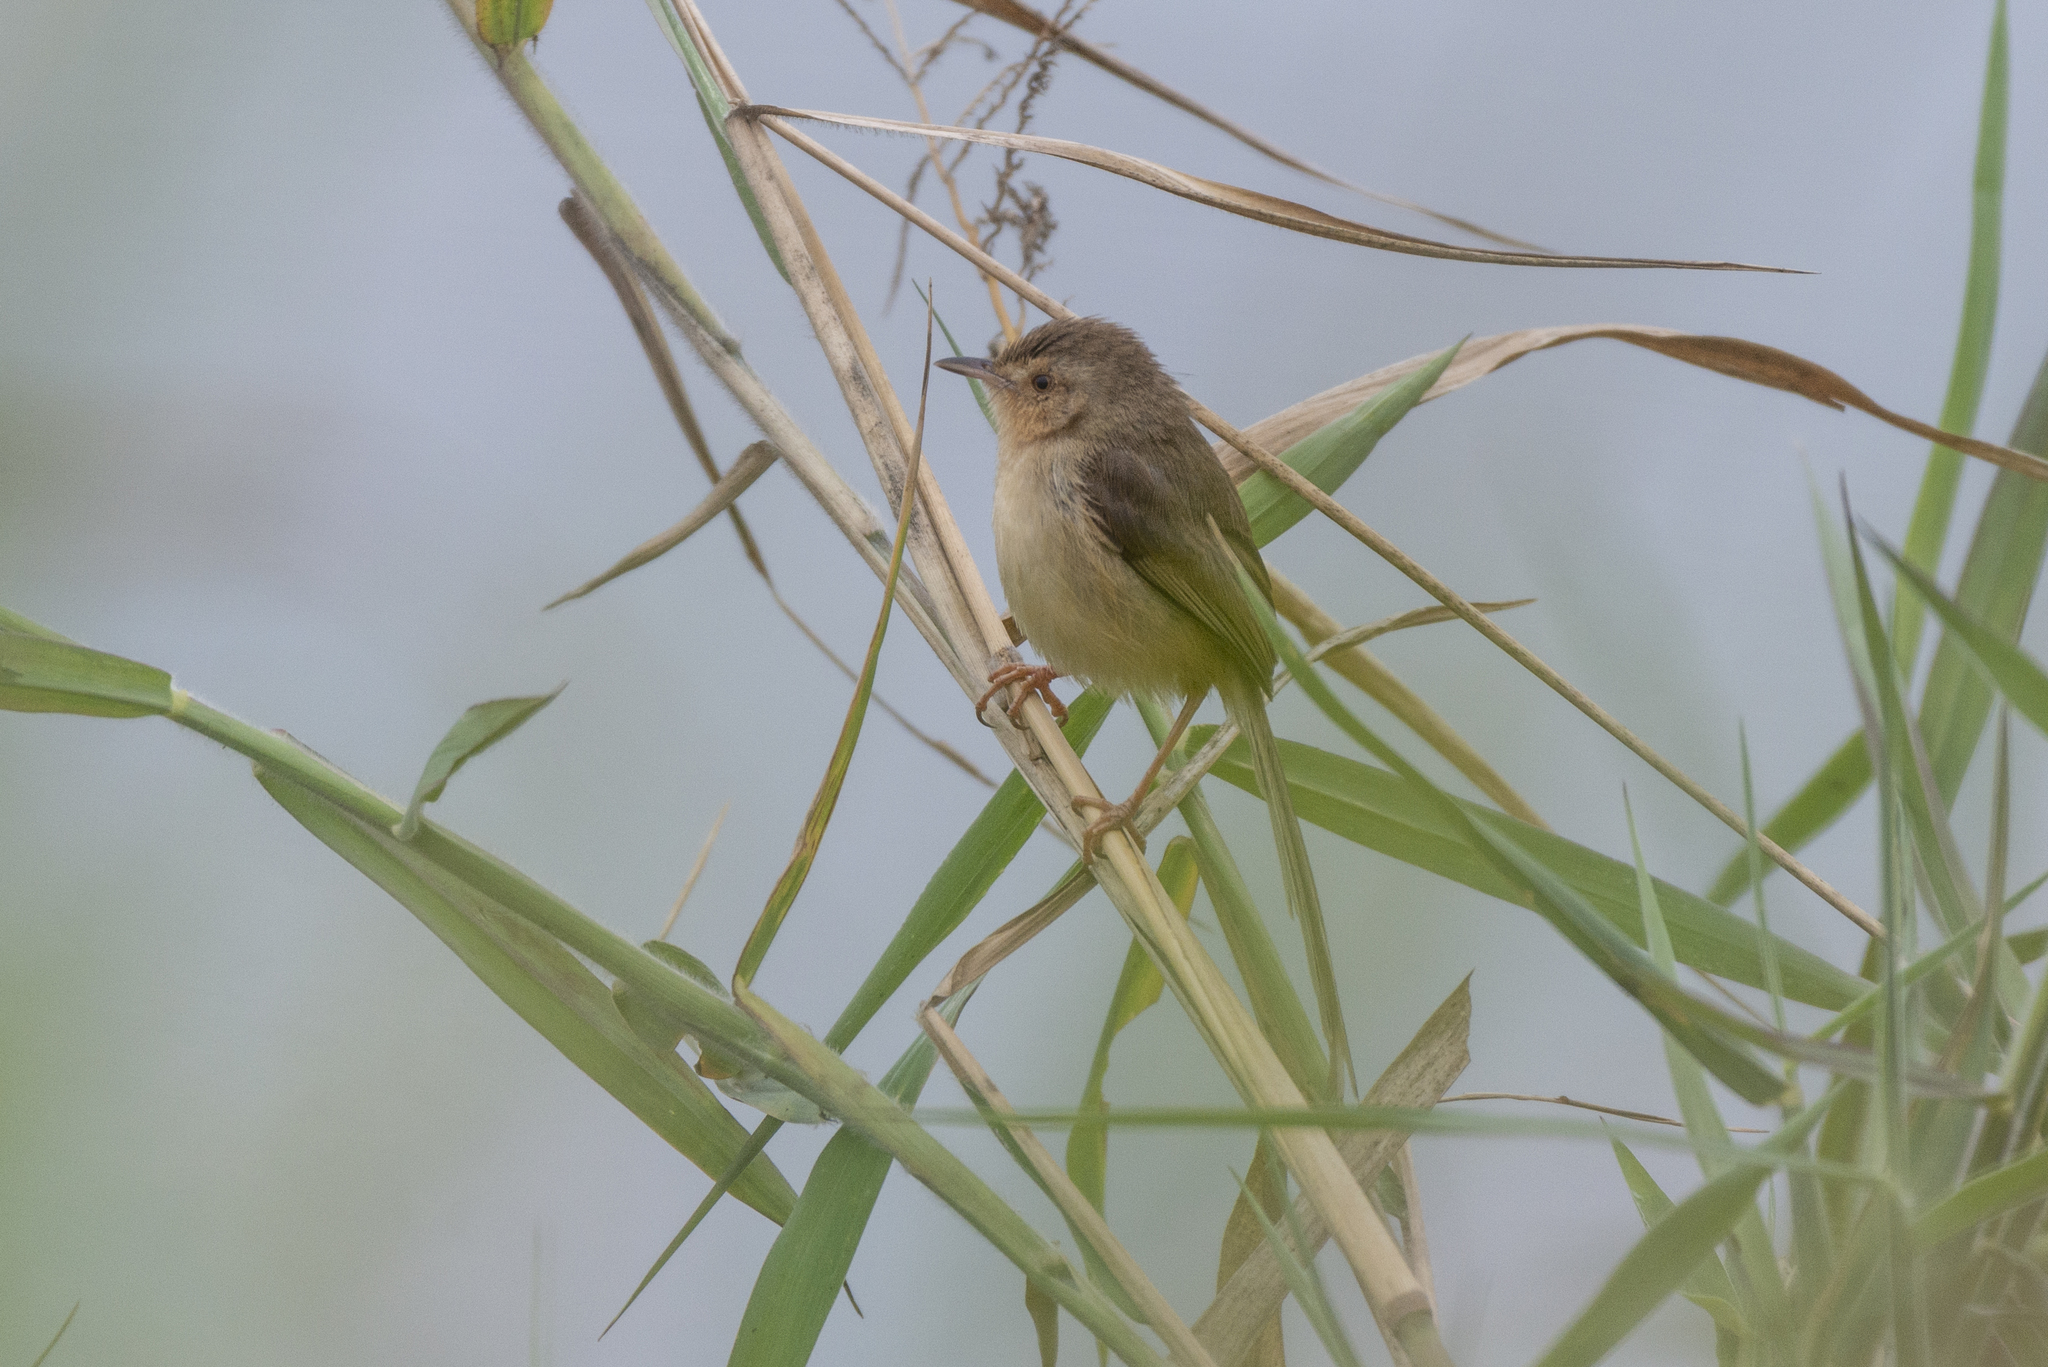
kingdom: Animalia
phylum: Chordata
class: Aves
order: Passeriformes
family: Cisticolidae
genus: Prinia
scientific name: Prinia inornata
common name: Plain prinia
